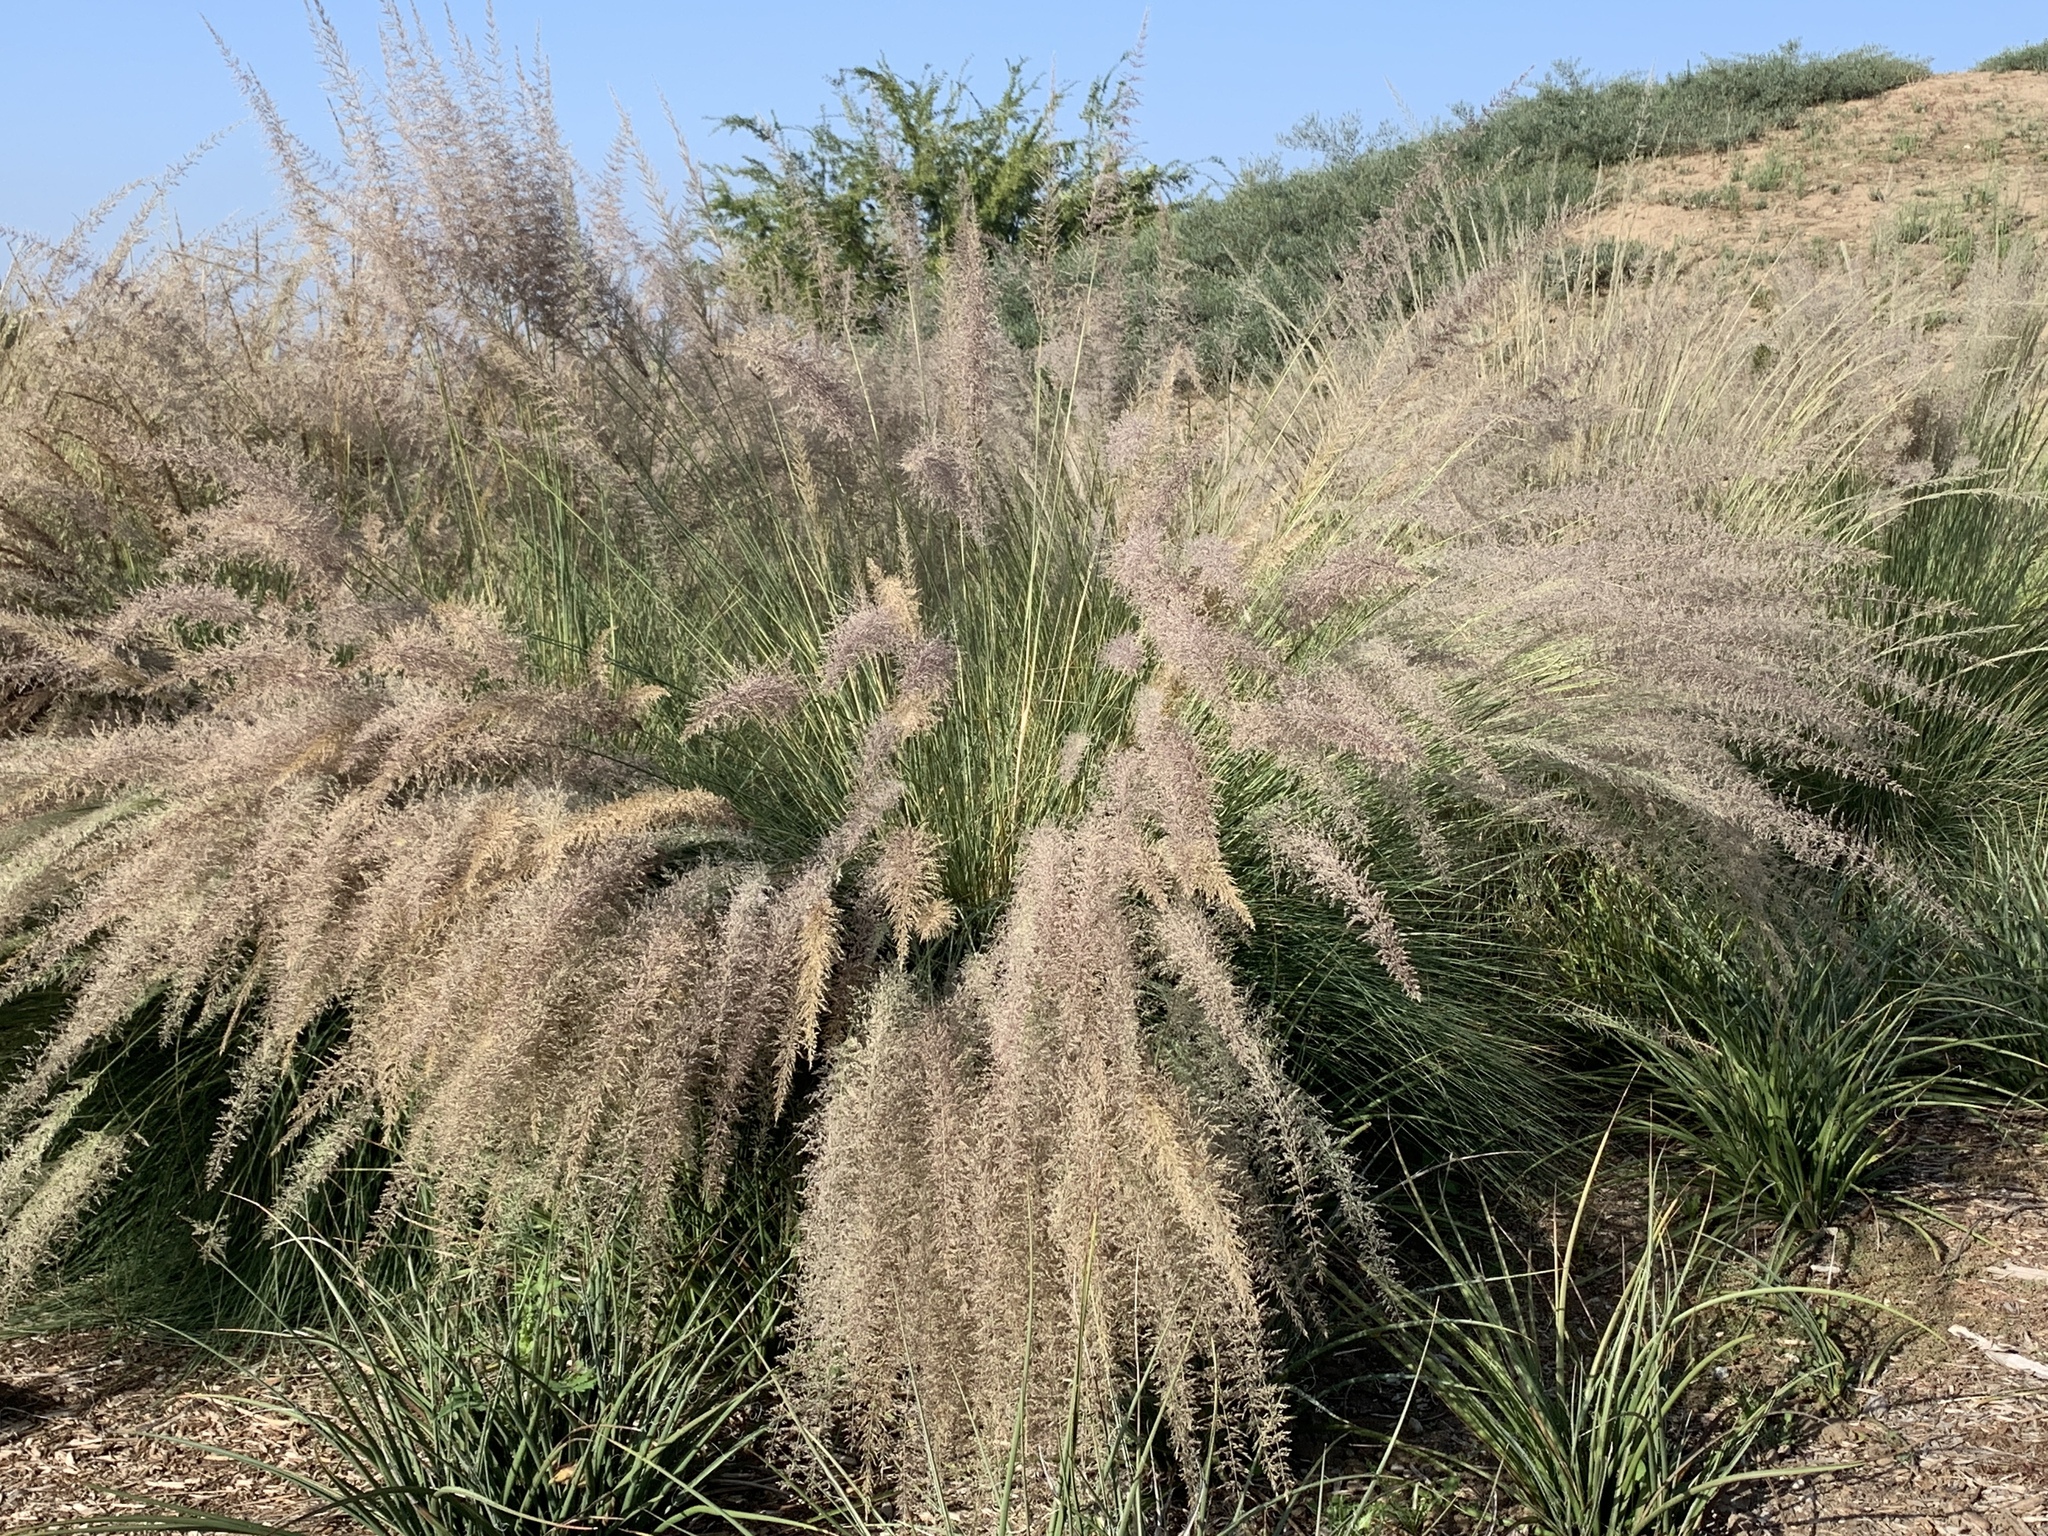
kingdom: Plantae
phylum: Tracheophyta
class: Liliopsida
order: Poales
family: Poaceae
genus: Cenchrus
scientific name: Cenchrus setaceus
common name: Crimson fountaingrass
